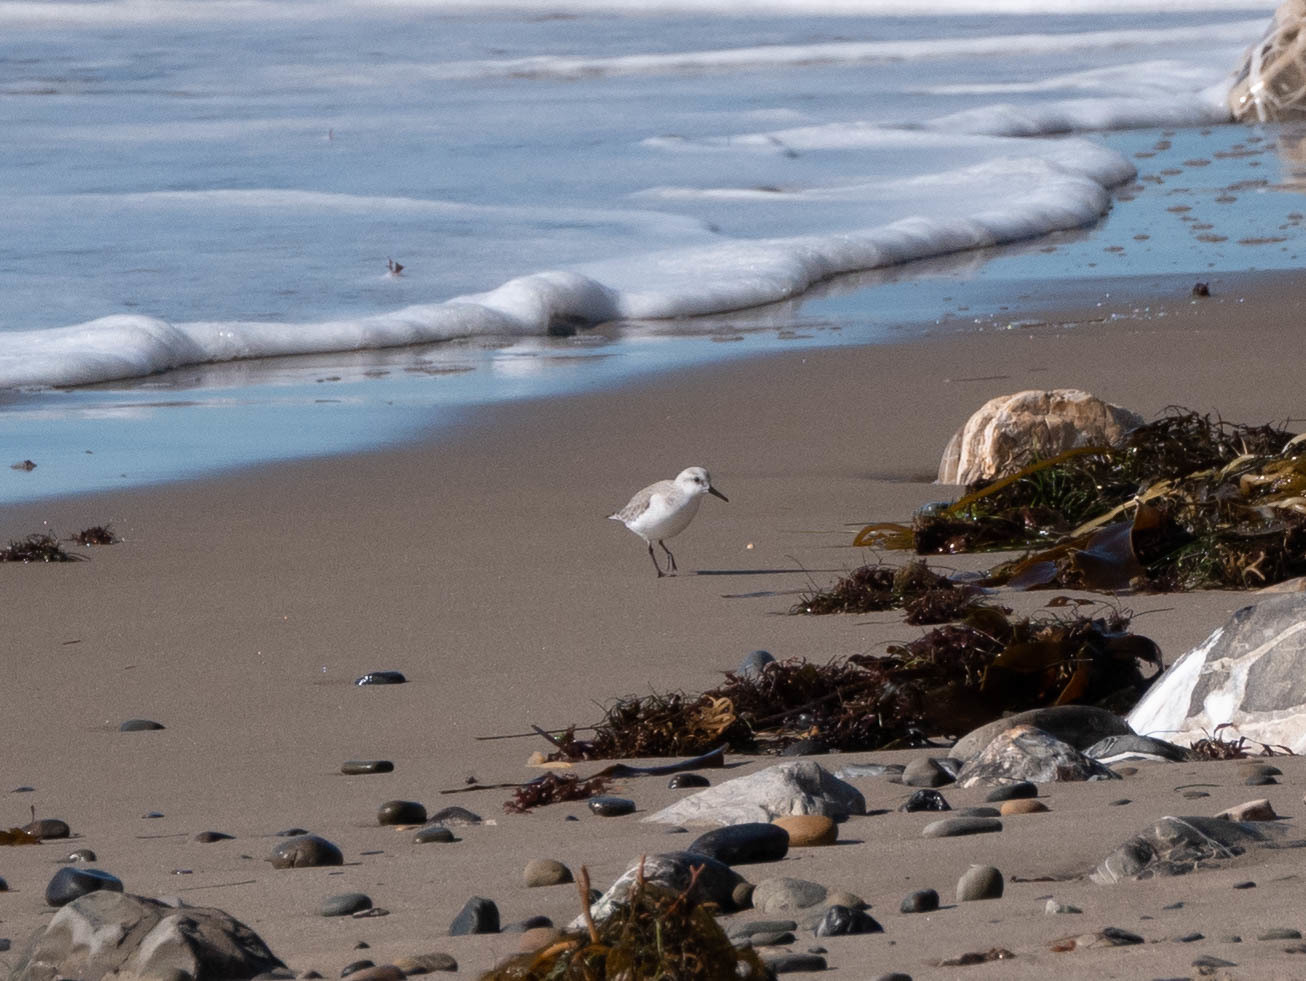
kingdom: Animalia
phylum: Chordata
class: Aves
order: Charadriiformes
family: Scolopacidae
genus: Calidris
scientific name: Calidris alba
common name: Sanderling
